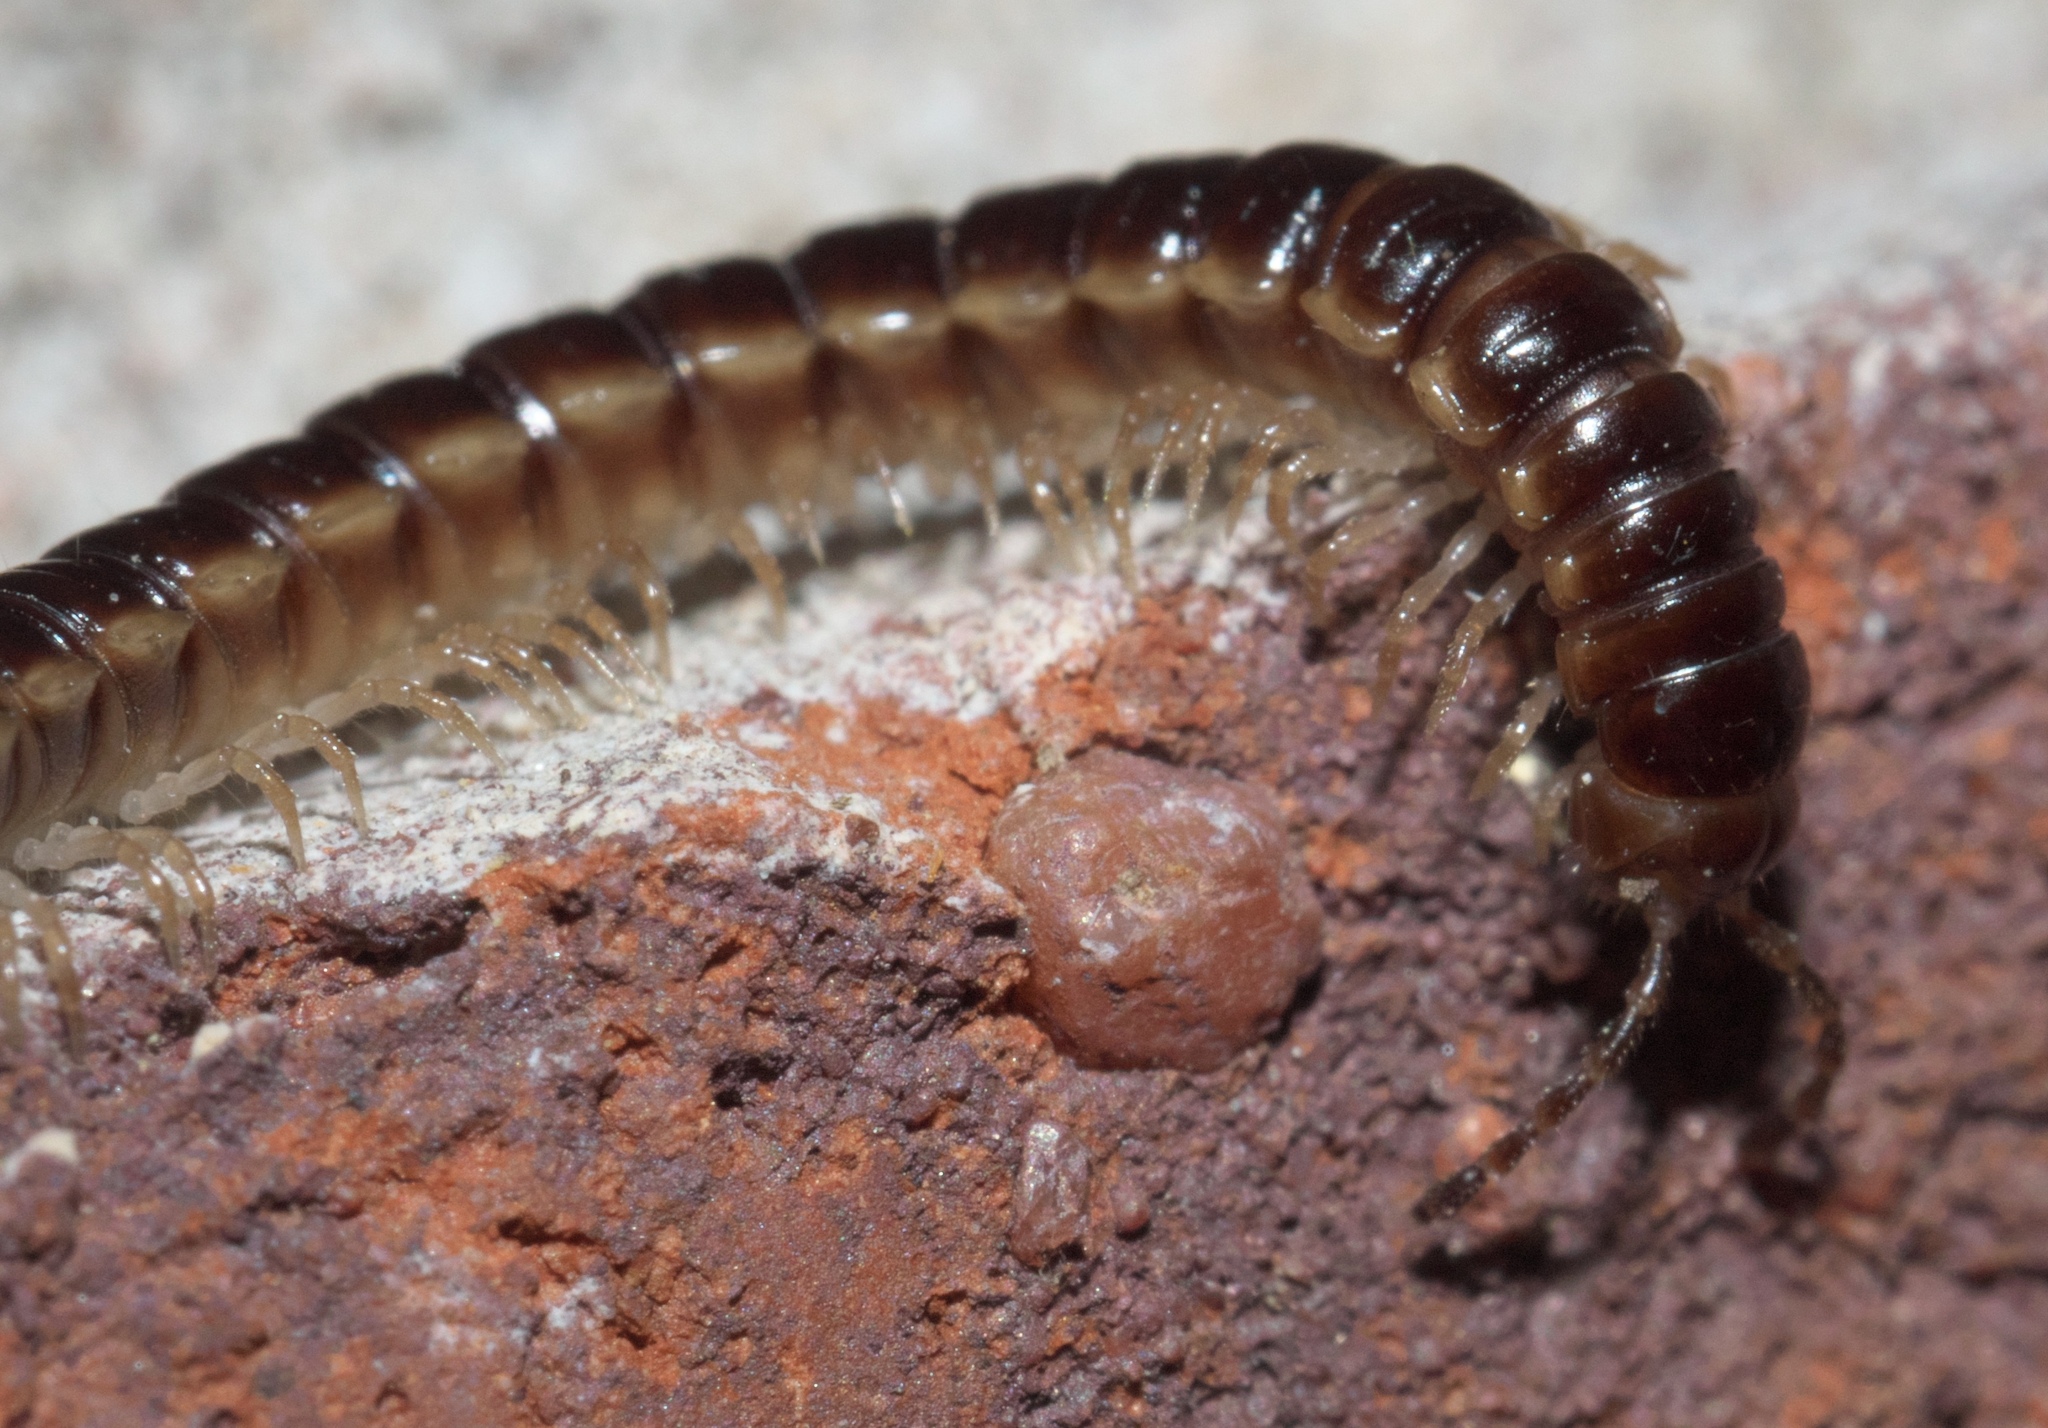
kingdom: Animalia
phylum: Arthropoda
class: Diplopoda
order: Polydesmida
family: Paradoxosomatidae
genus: Oxidus
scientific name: Oxidus gracilis
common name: Greenhouse millipede
